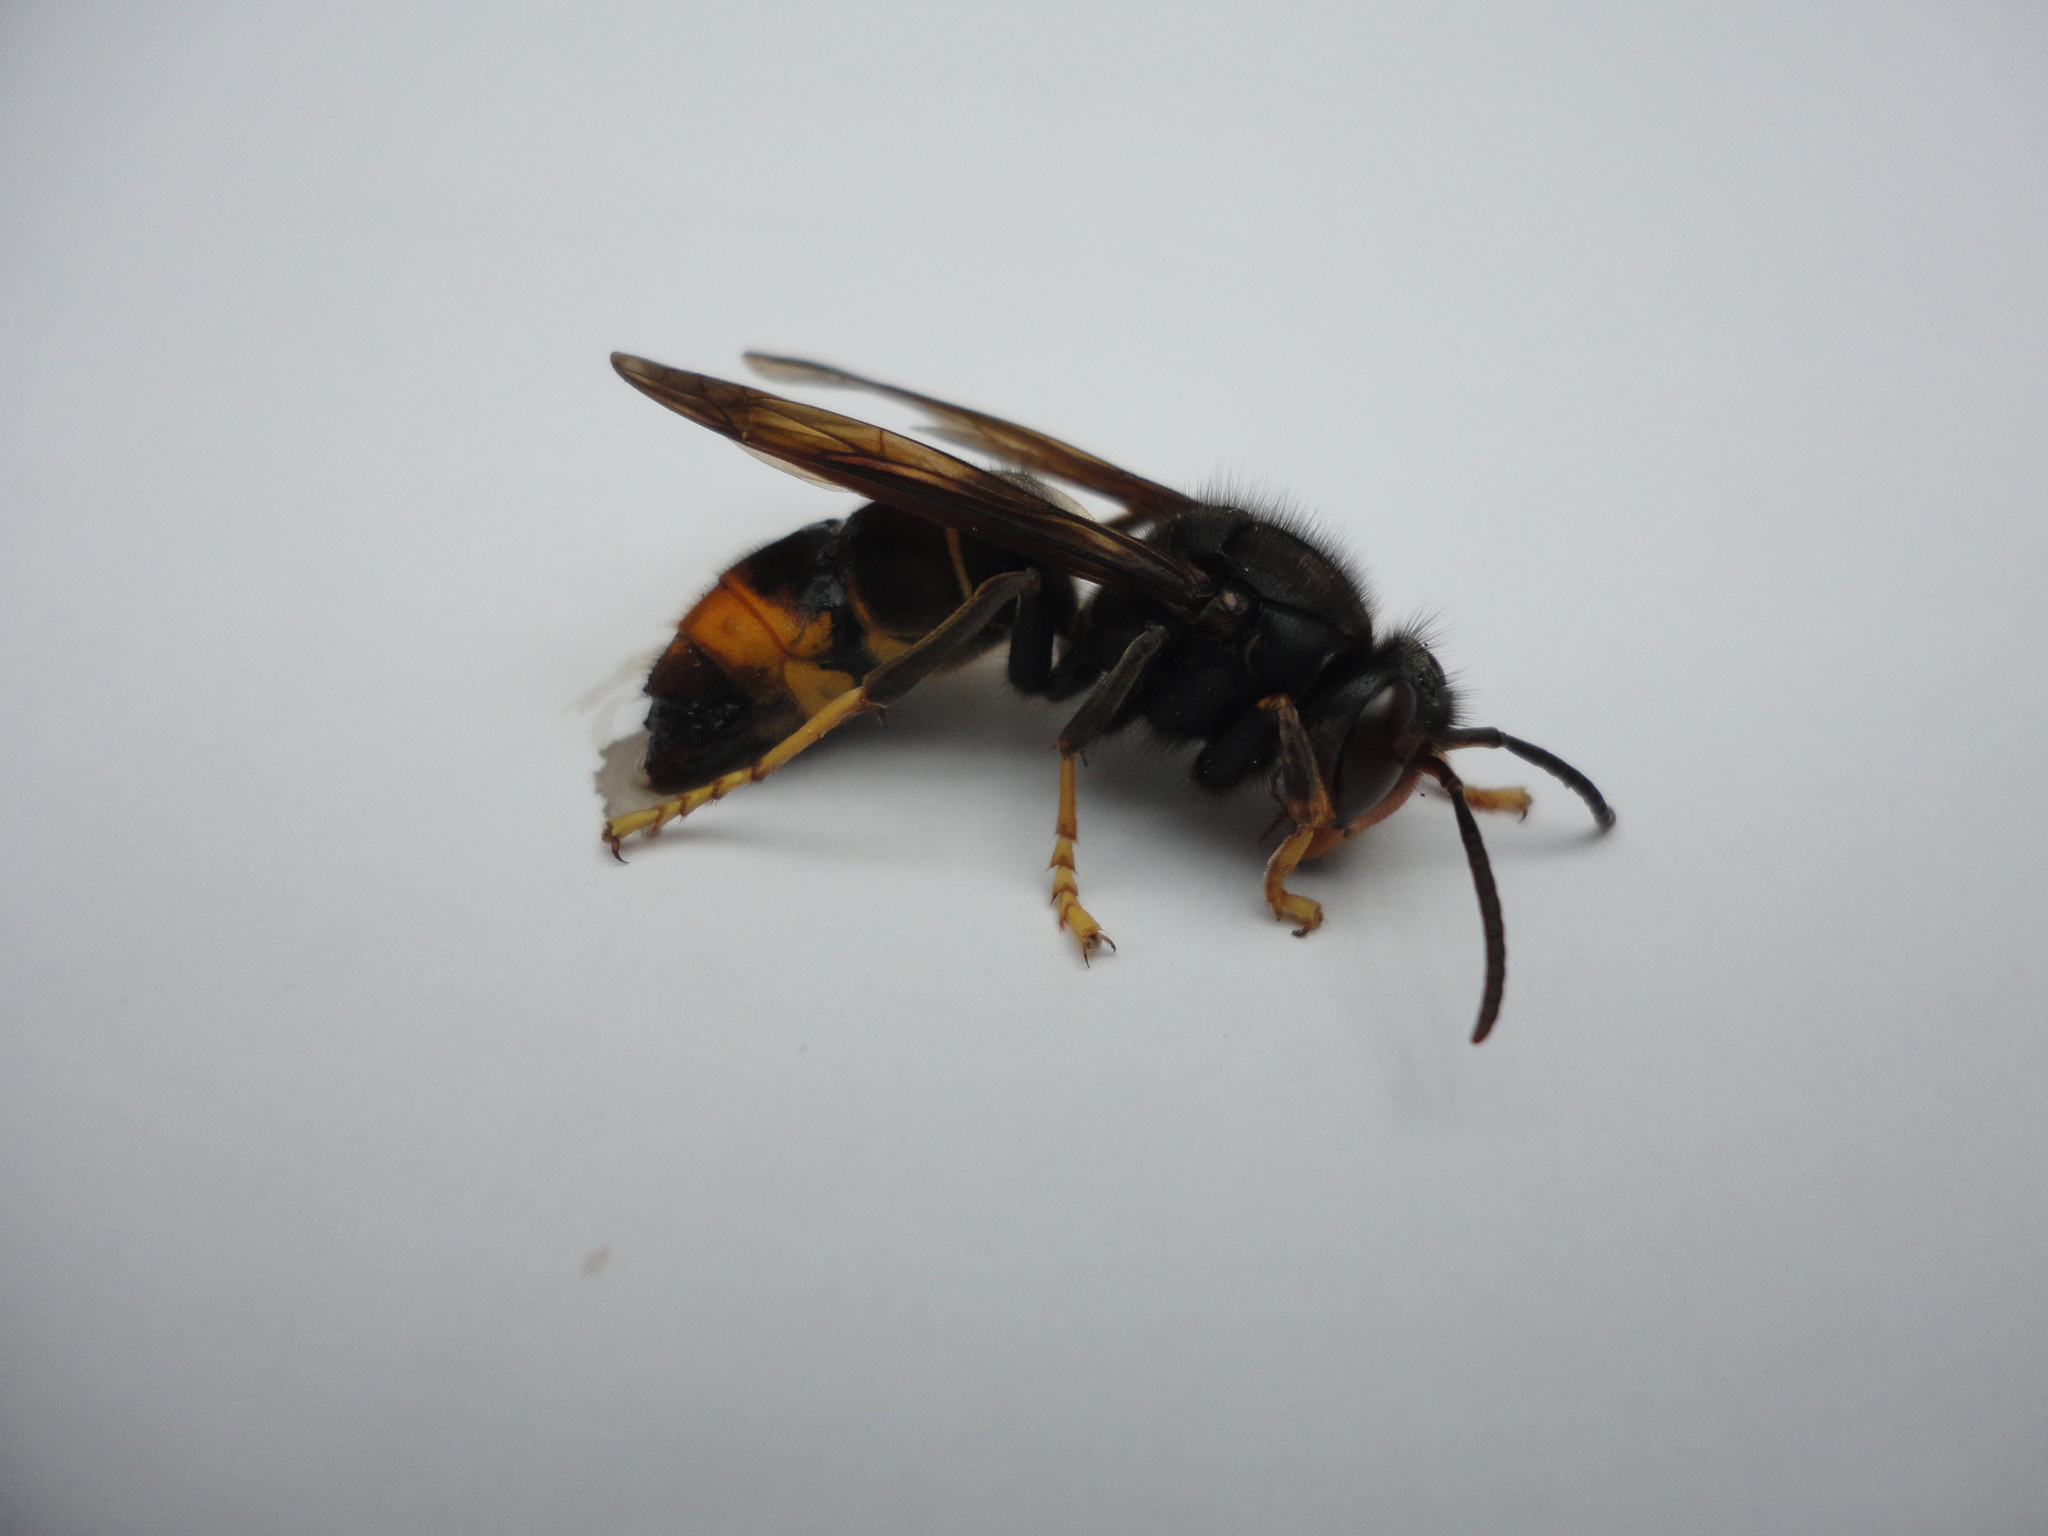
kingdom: Animalia
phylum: Arthropoda
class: Insecta
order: Hymenoptera
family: Vespidae
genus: Vespa
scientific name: Vespa velutina
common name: Asian hornet
